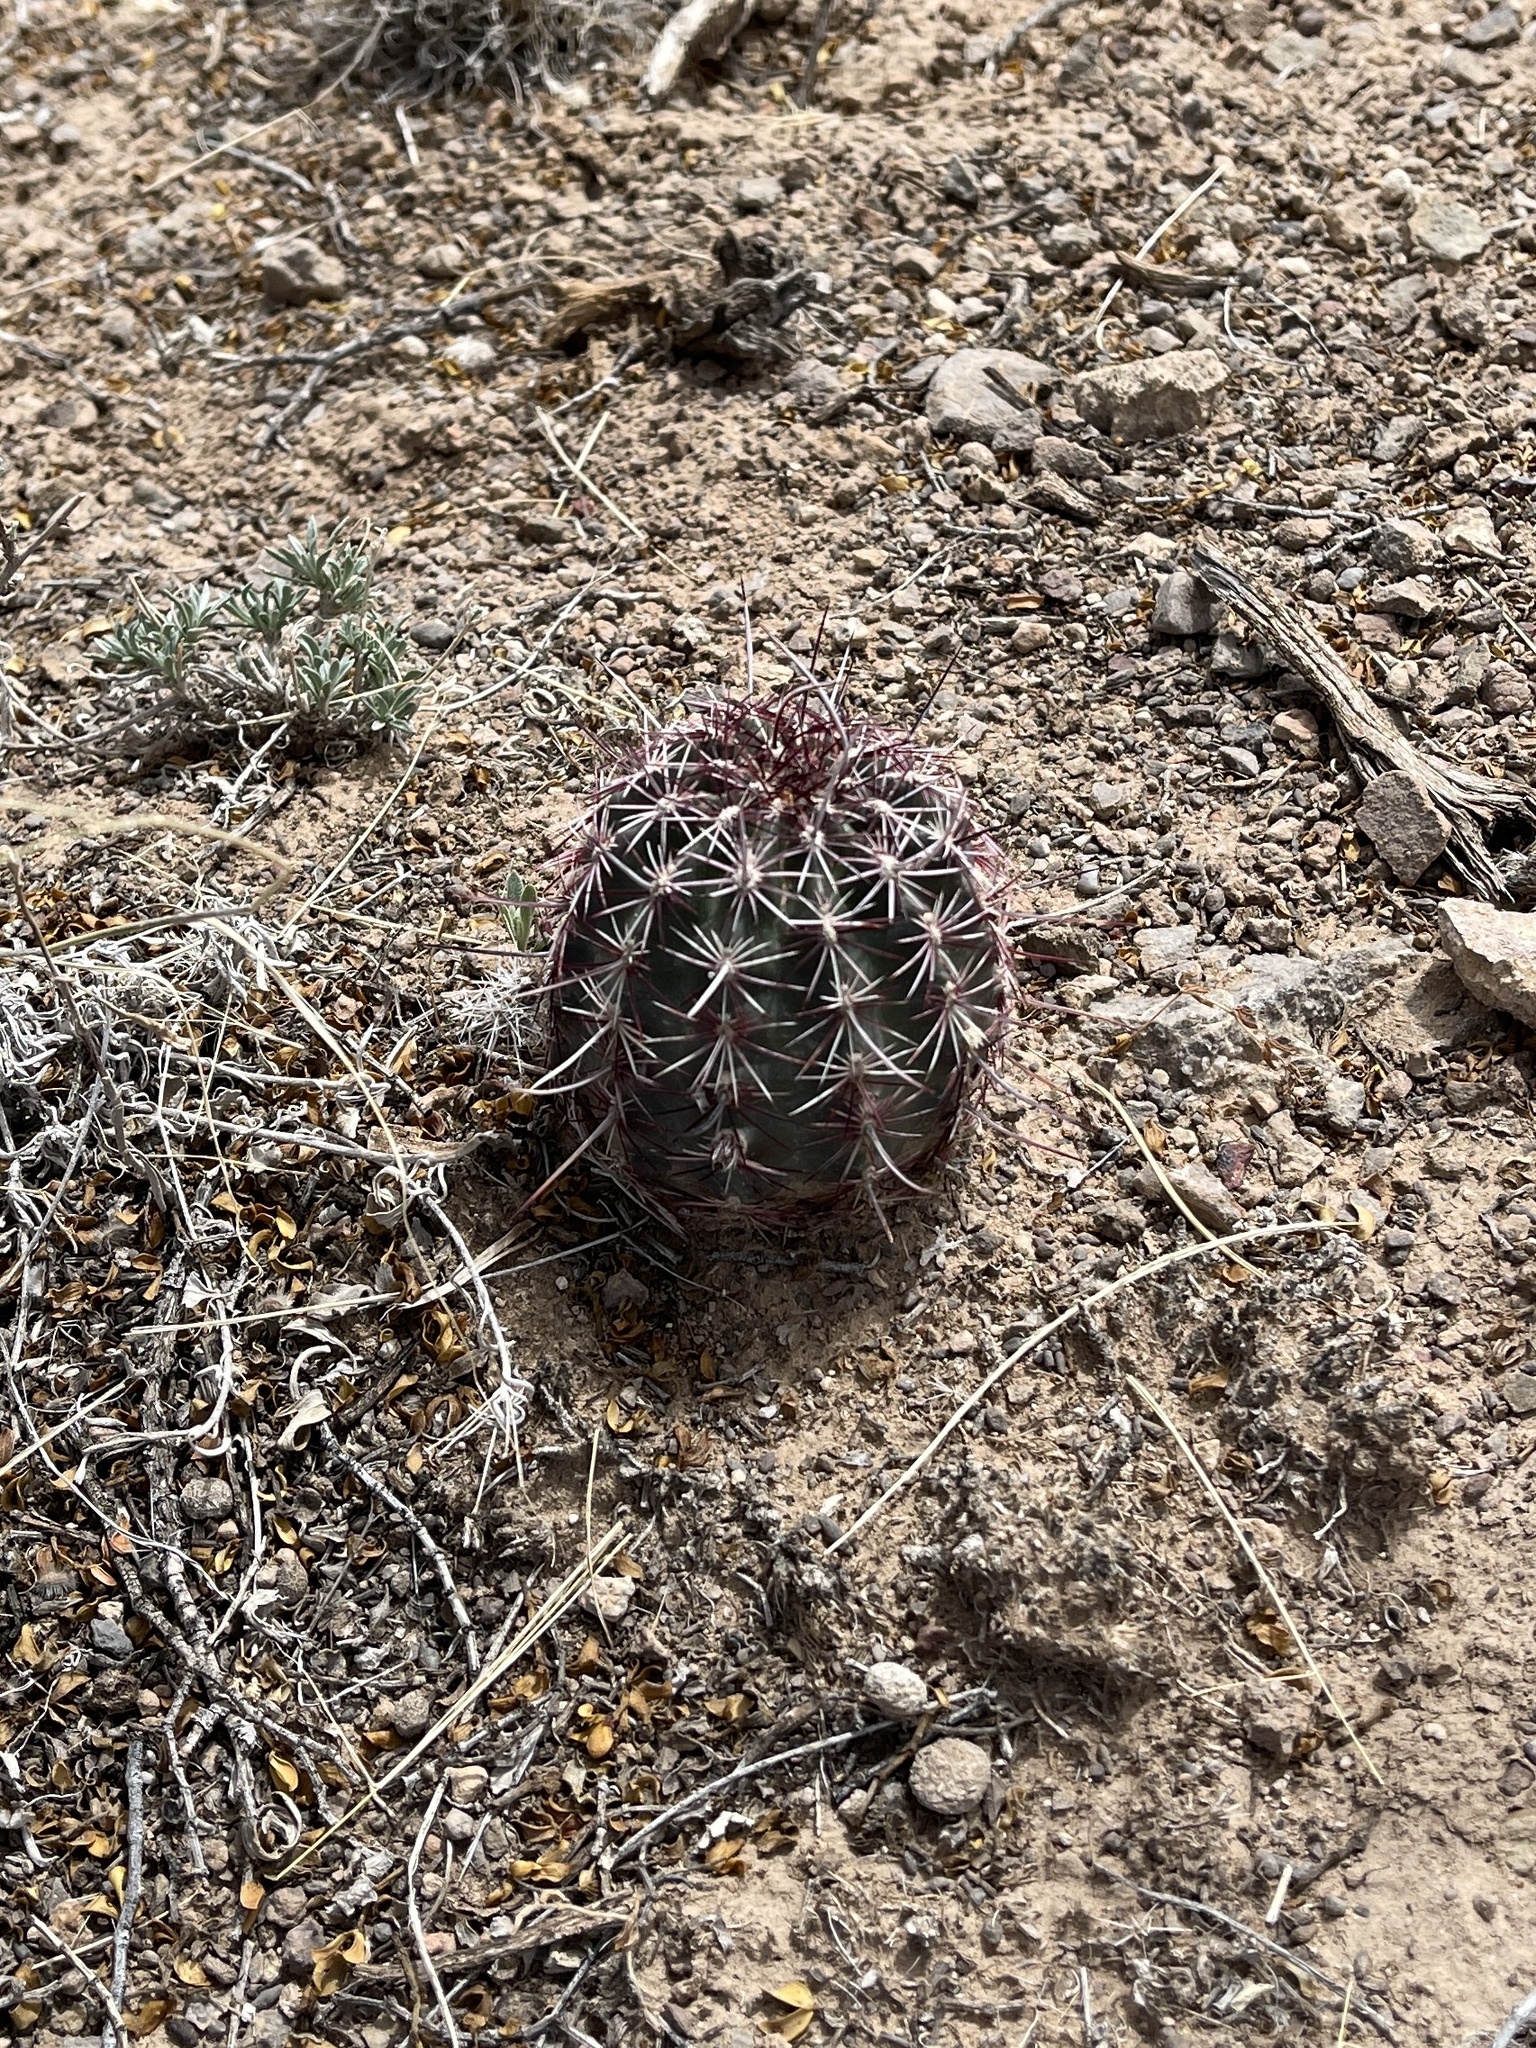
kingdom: Plantae
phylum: Tracheophyta
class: Magnoliopsida
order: Caryophyllales
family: Cactaceae
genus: Echinocereus
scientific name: Echinocereus viridiflorus
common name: Nylon hedgehog cactus
